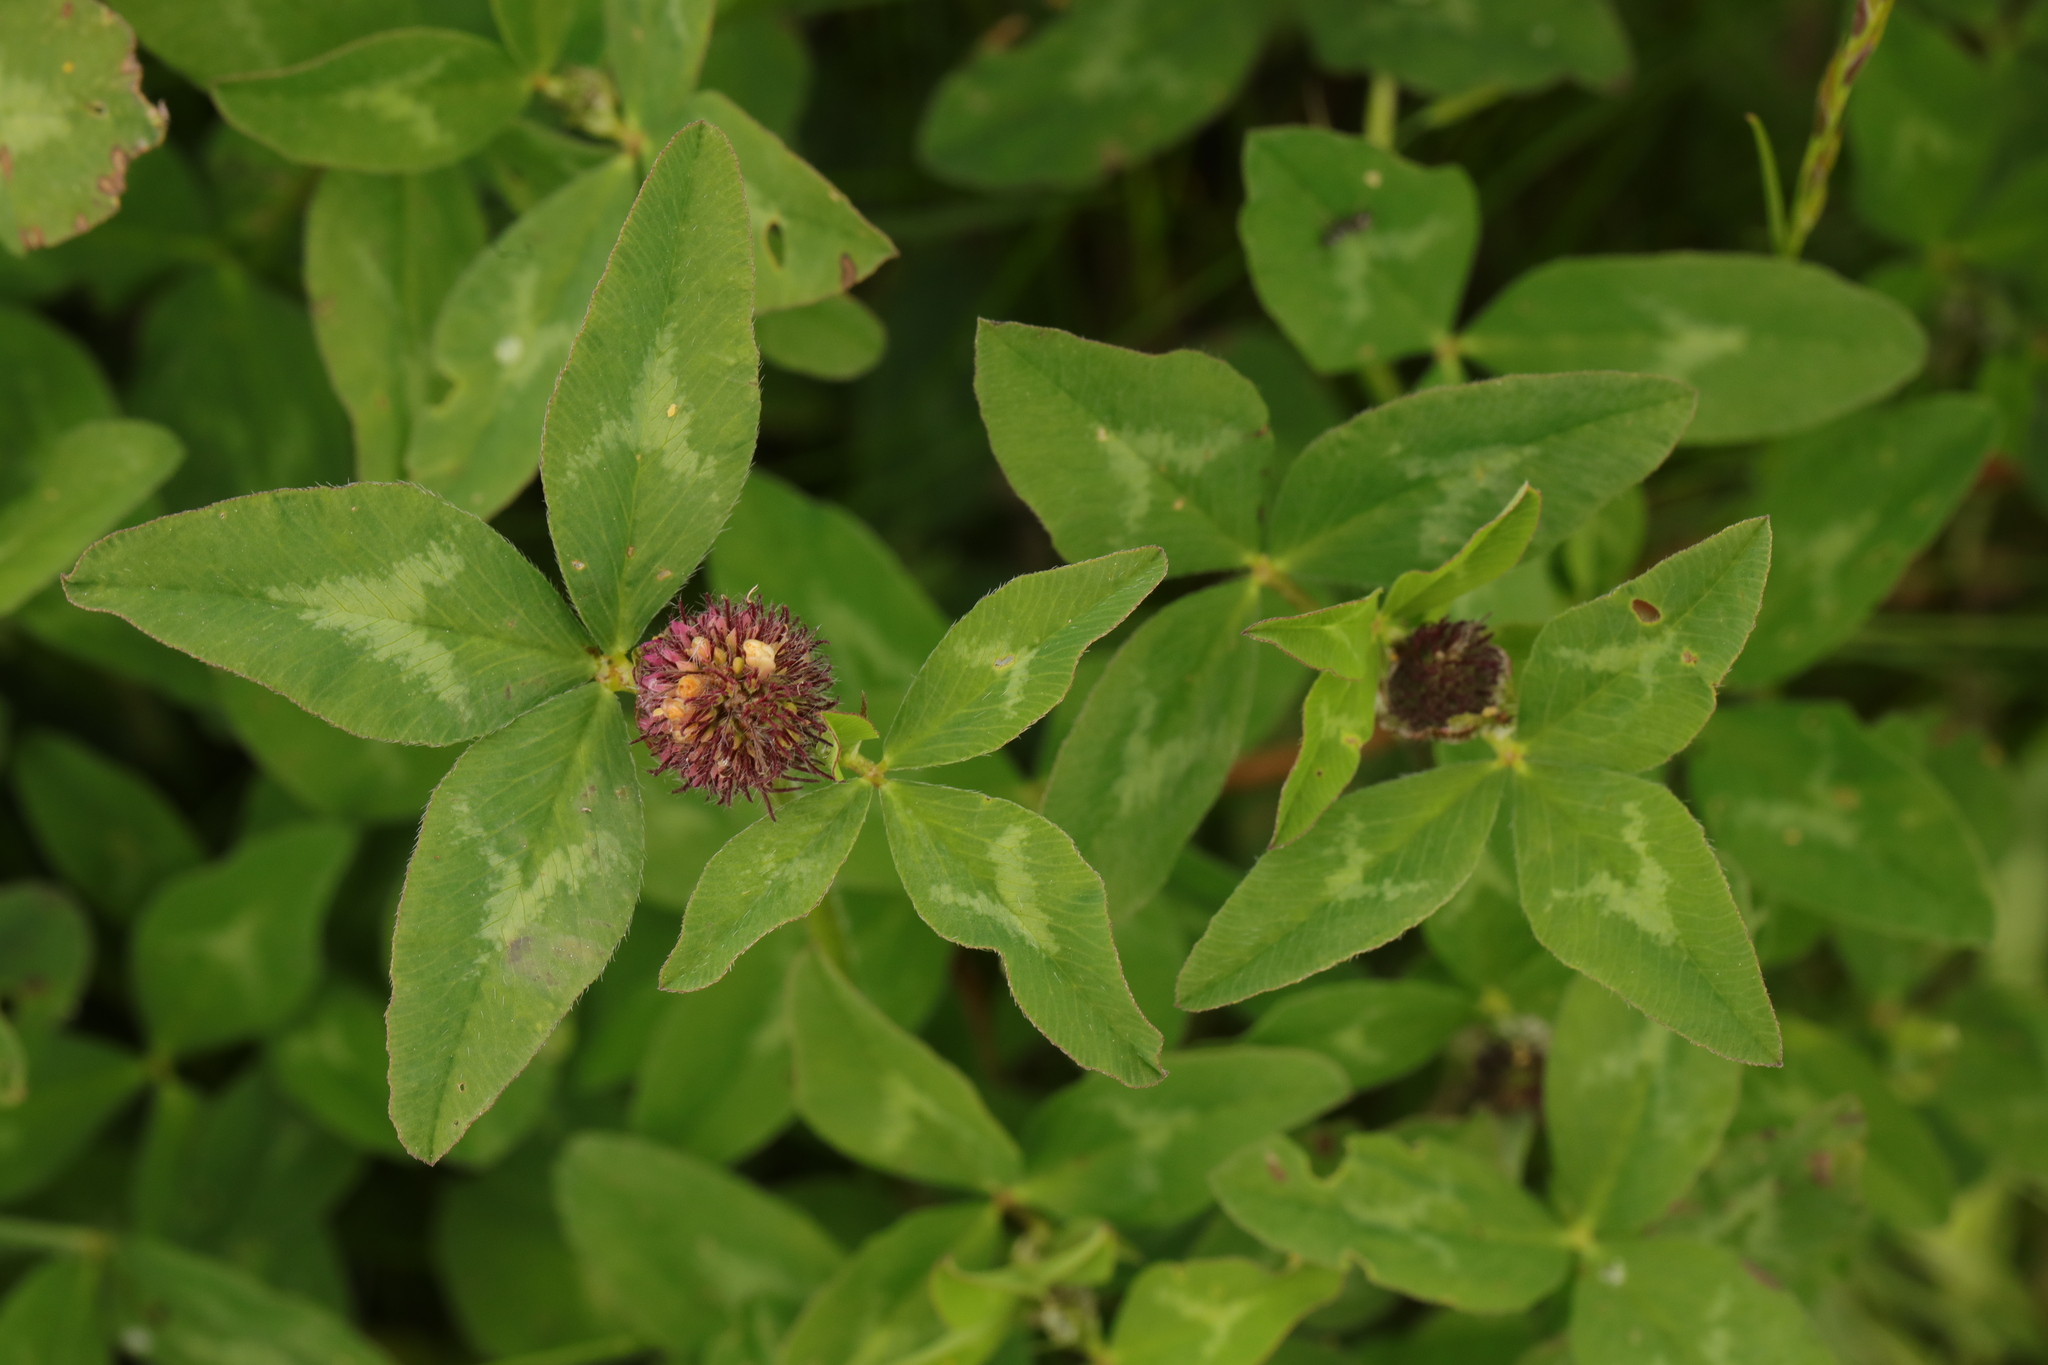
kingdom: Plantae
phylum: Tracheophyta
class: Magnoliopsida
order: Fabales
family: Fabaceae
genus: Trifolium
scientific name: Trifolium pratense
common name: Red clover
